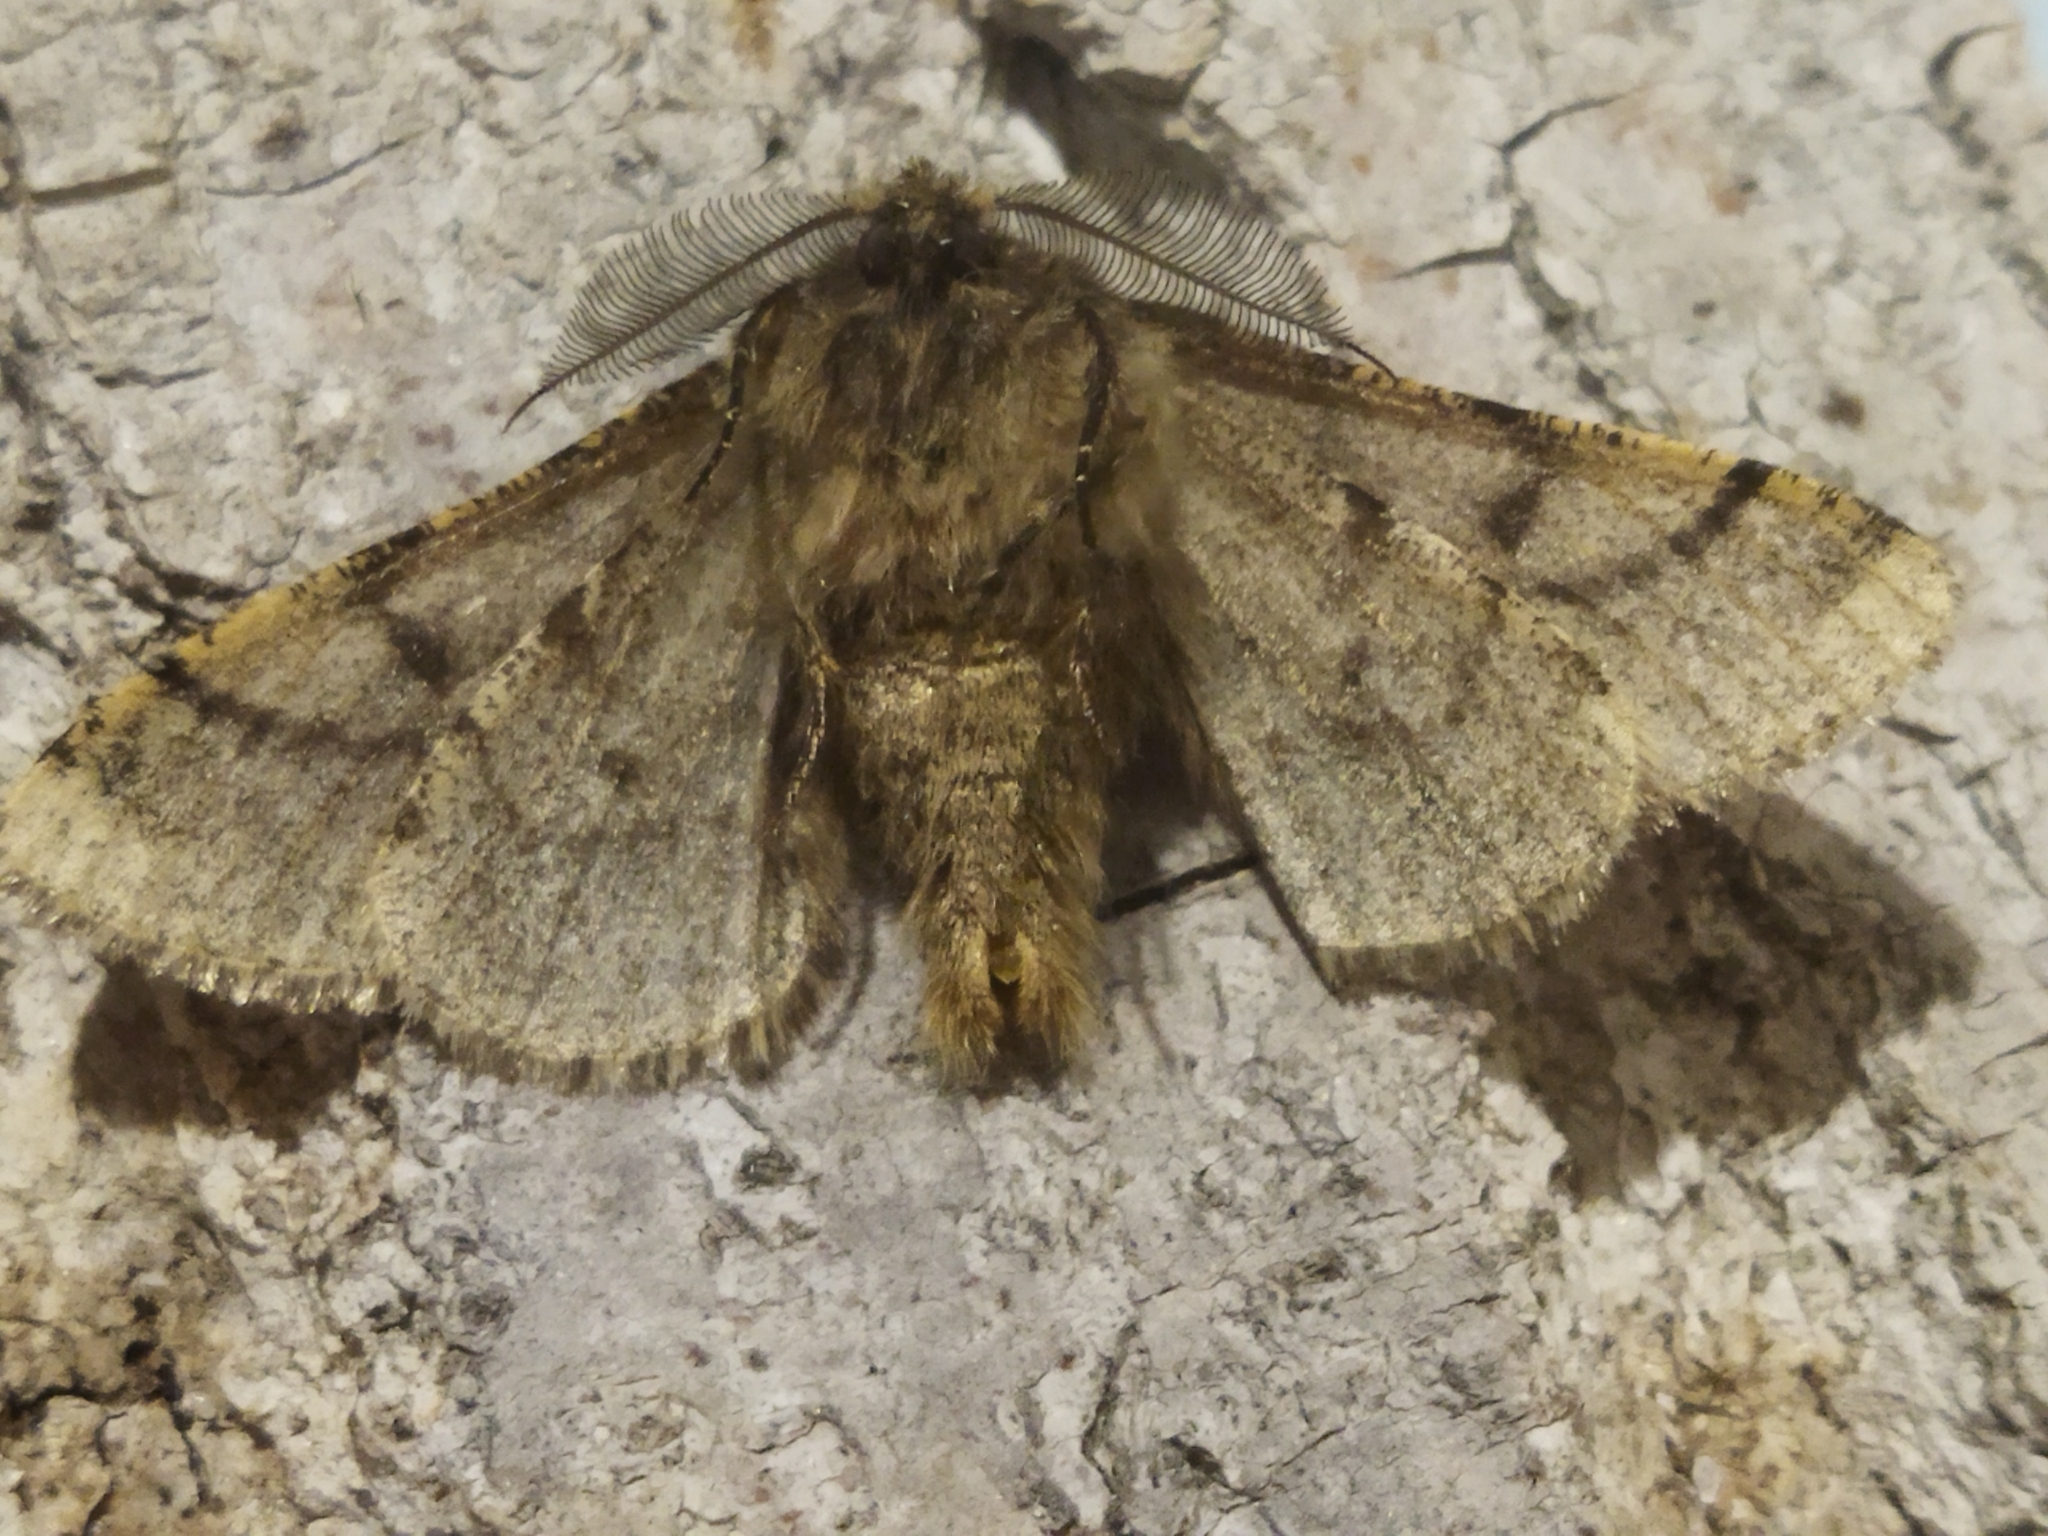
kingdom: Animalia
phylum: Arthropoda
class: Insecta
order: Lepidoptera
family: Geometridae
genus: Lycia
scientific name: Lycia hirtaria
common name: Brindled beauty
